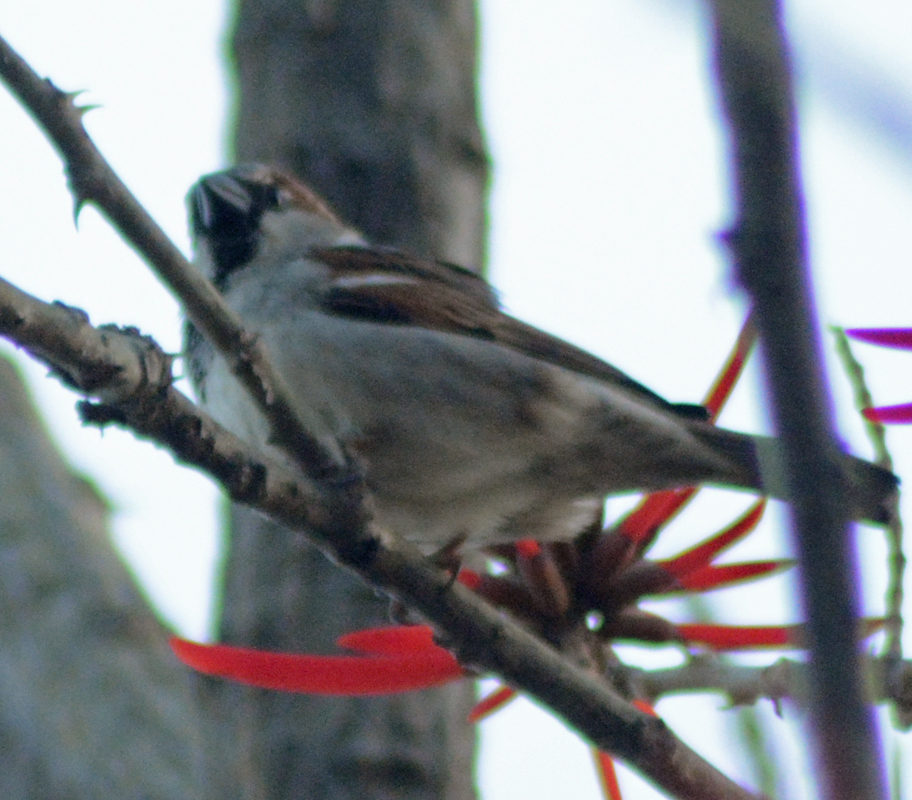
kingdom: Animalia
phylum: Chordata
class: Aves
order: Passeriformes
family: Passeridae
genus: Passer
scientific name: Passer domesticus
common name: House sparrow
